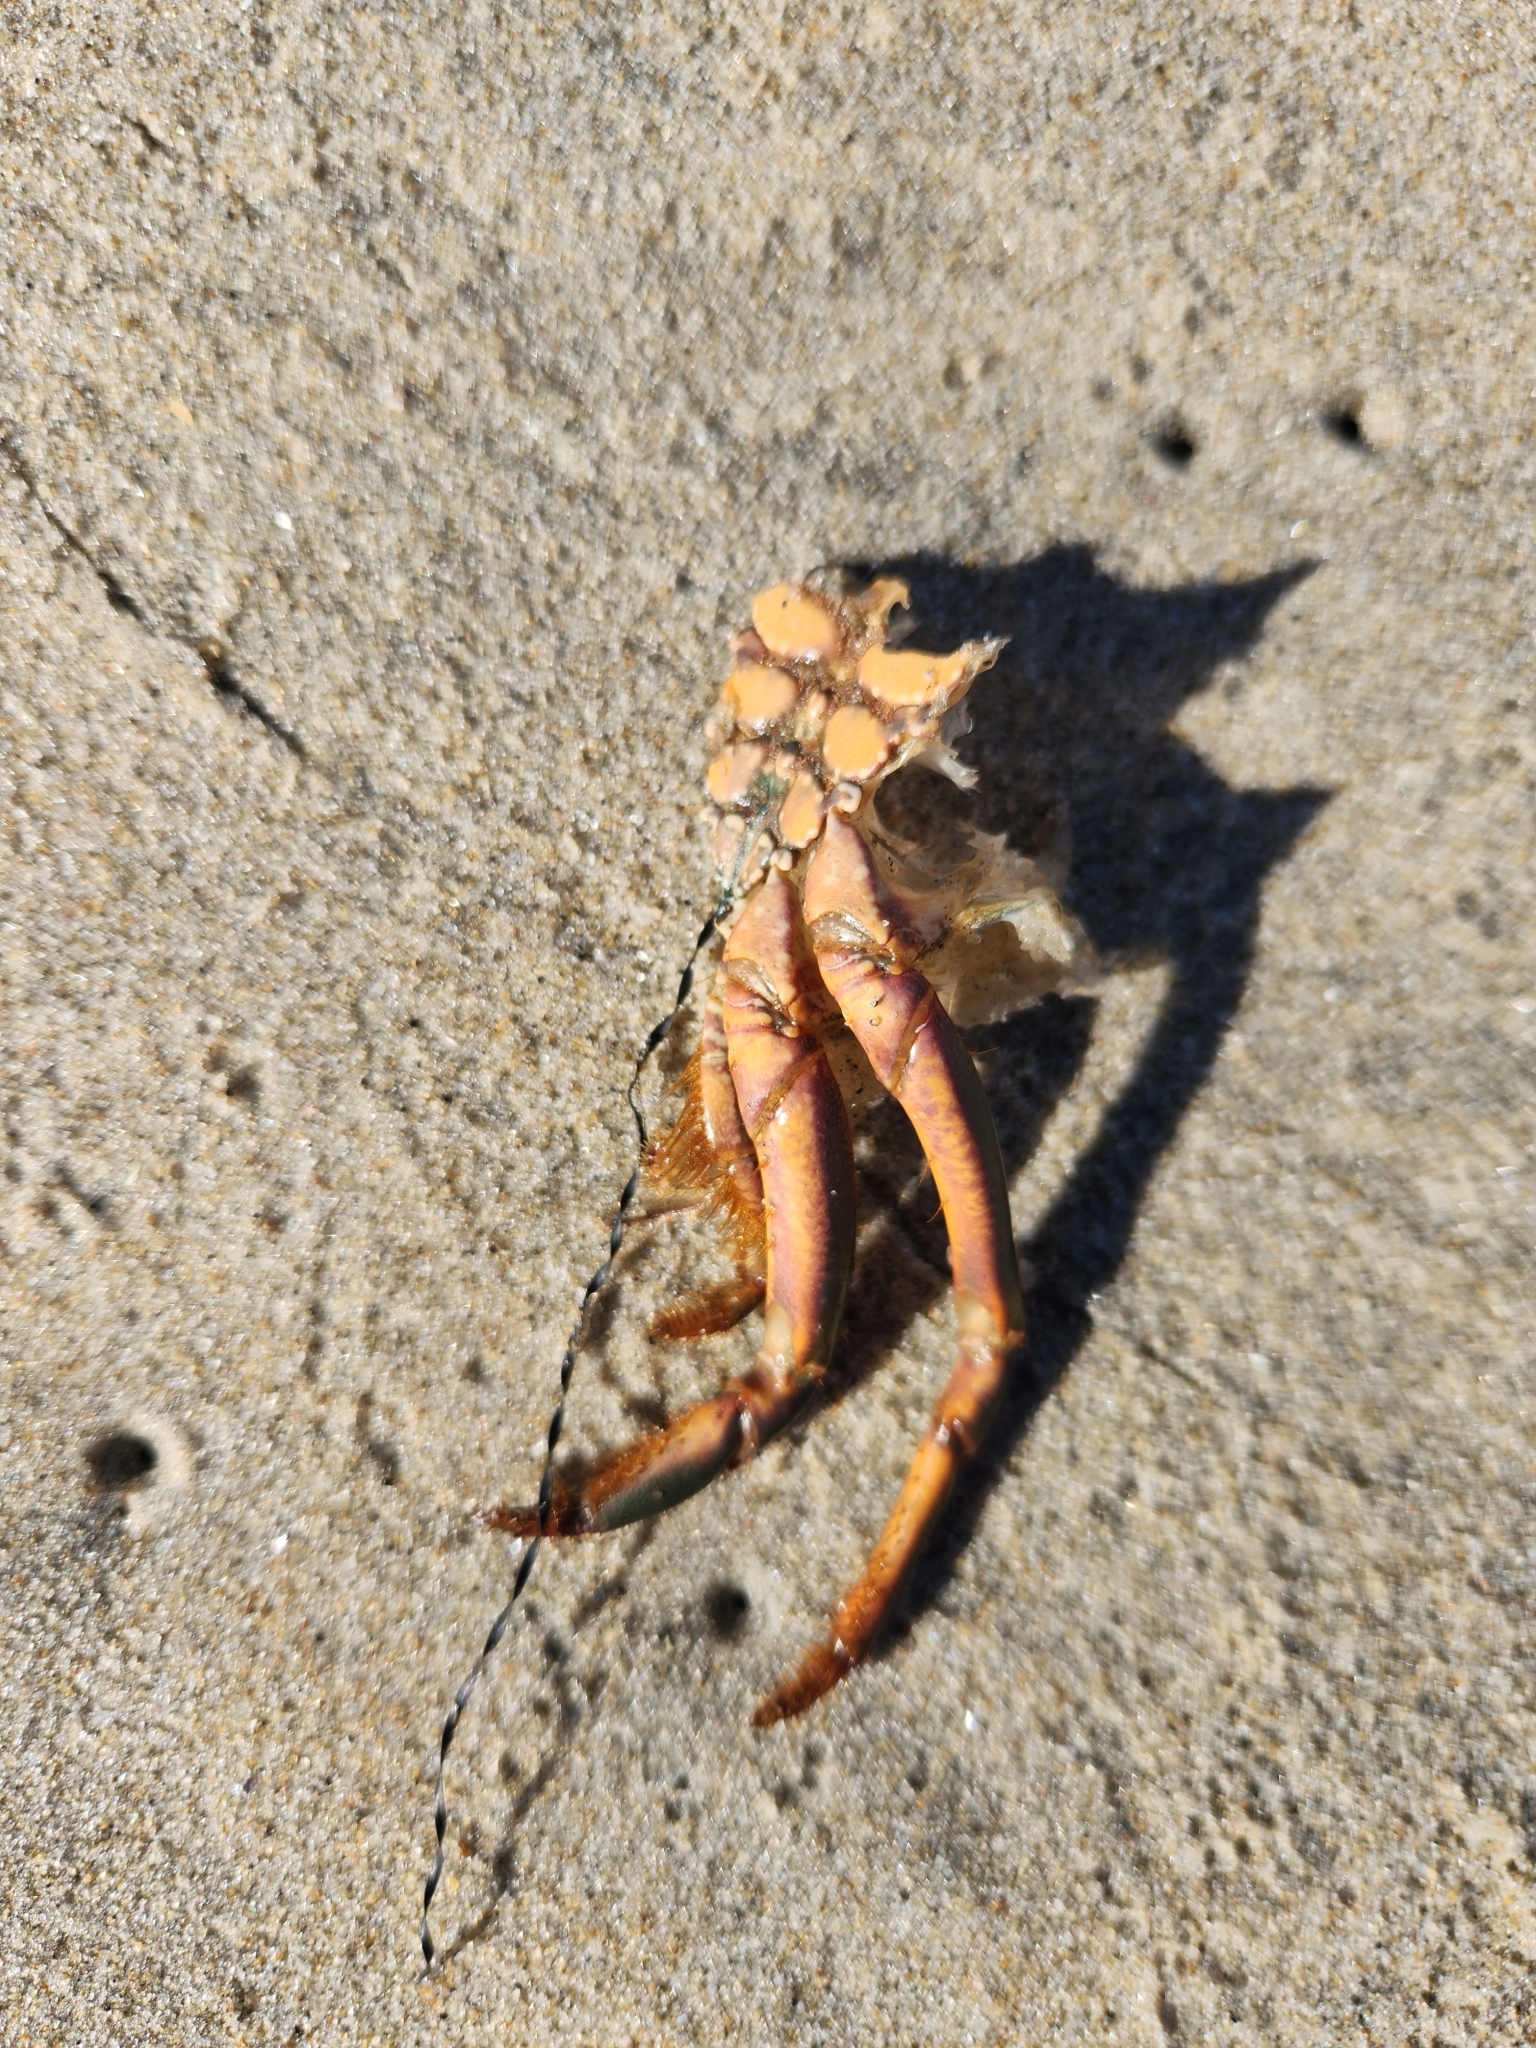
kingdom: Animalia
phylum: Arthropoda
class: Malacostraca
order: Decapoda
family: Palinuridae
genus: Panulirus
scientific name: Panulirus interruptus
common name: California spiny lobster
